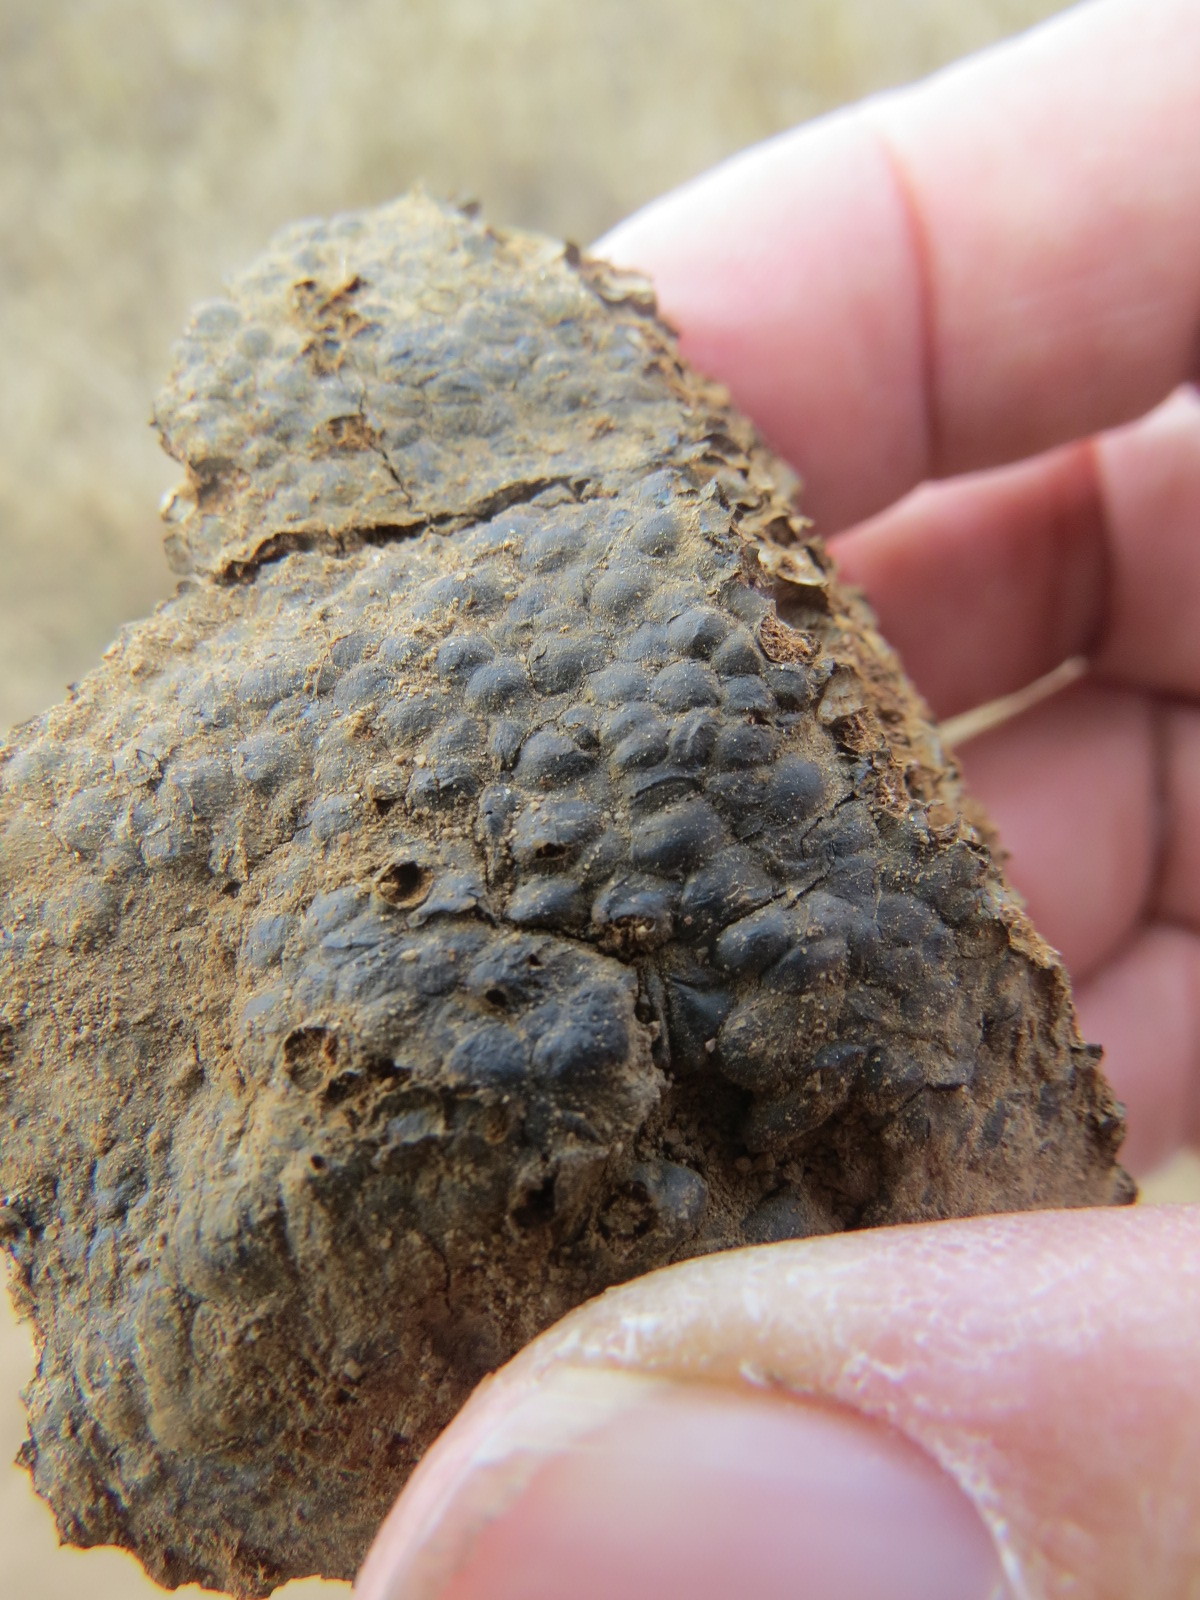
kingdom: Fungi
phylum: Basidiomycota
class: Agaricomycetes
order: Boletales
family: Sclerodermataceae
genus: Pisolithus
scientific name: Pisolithus tinctorius
